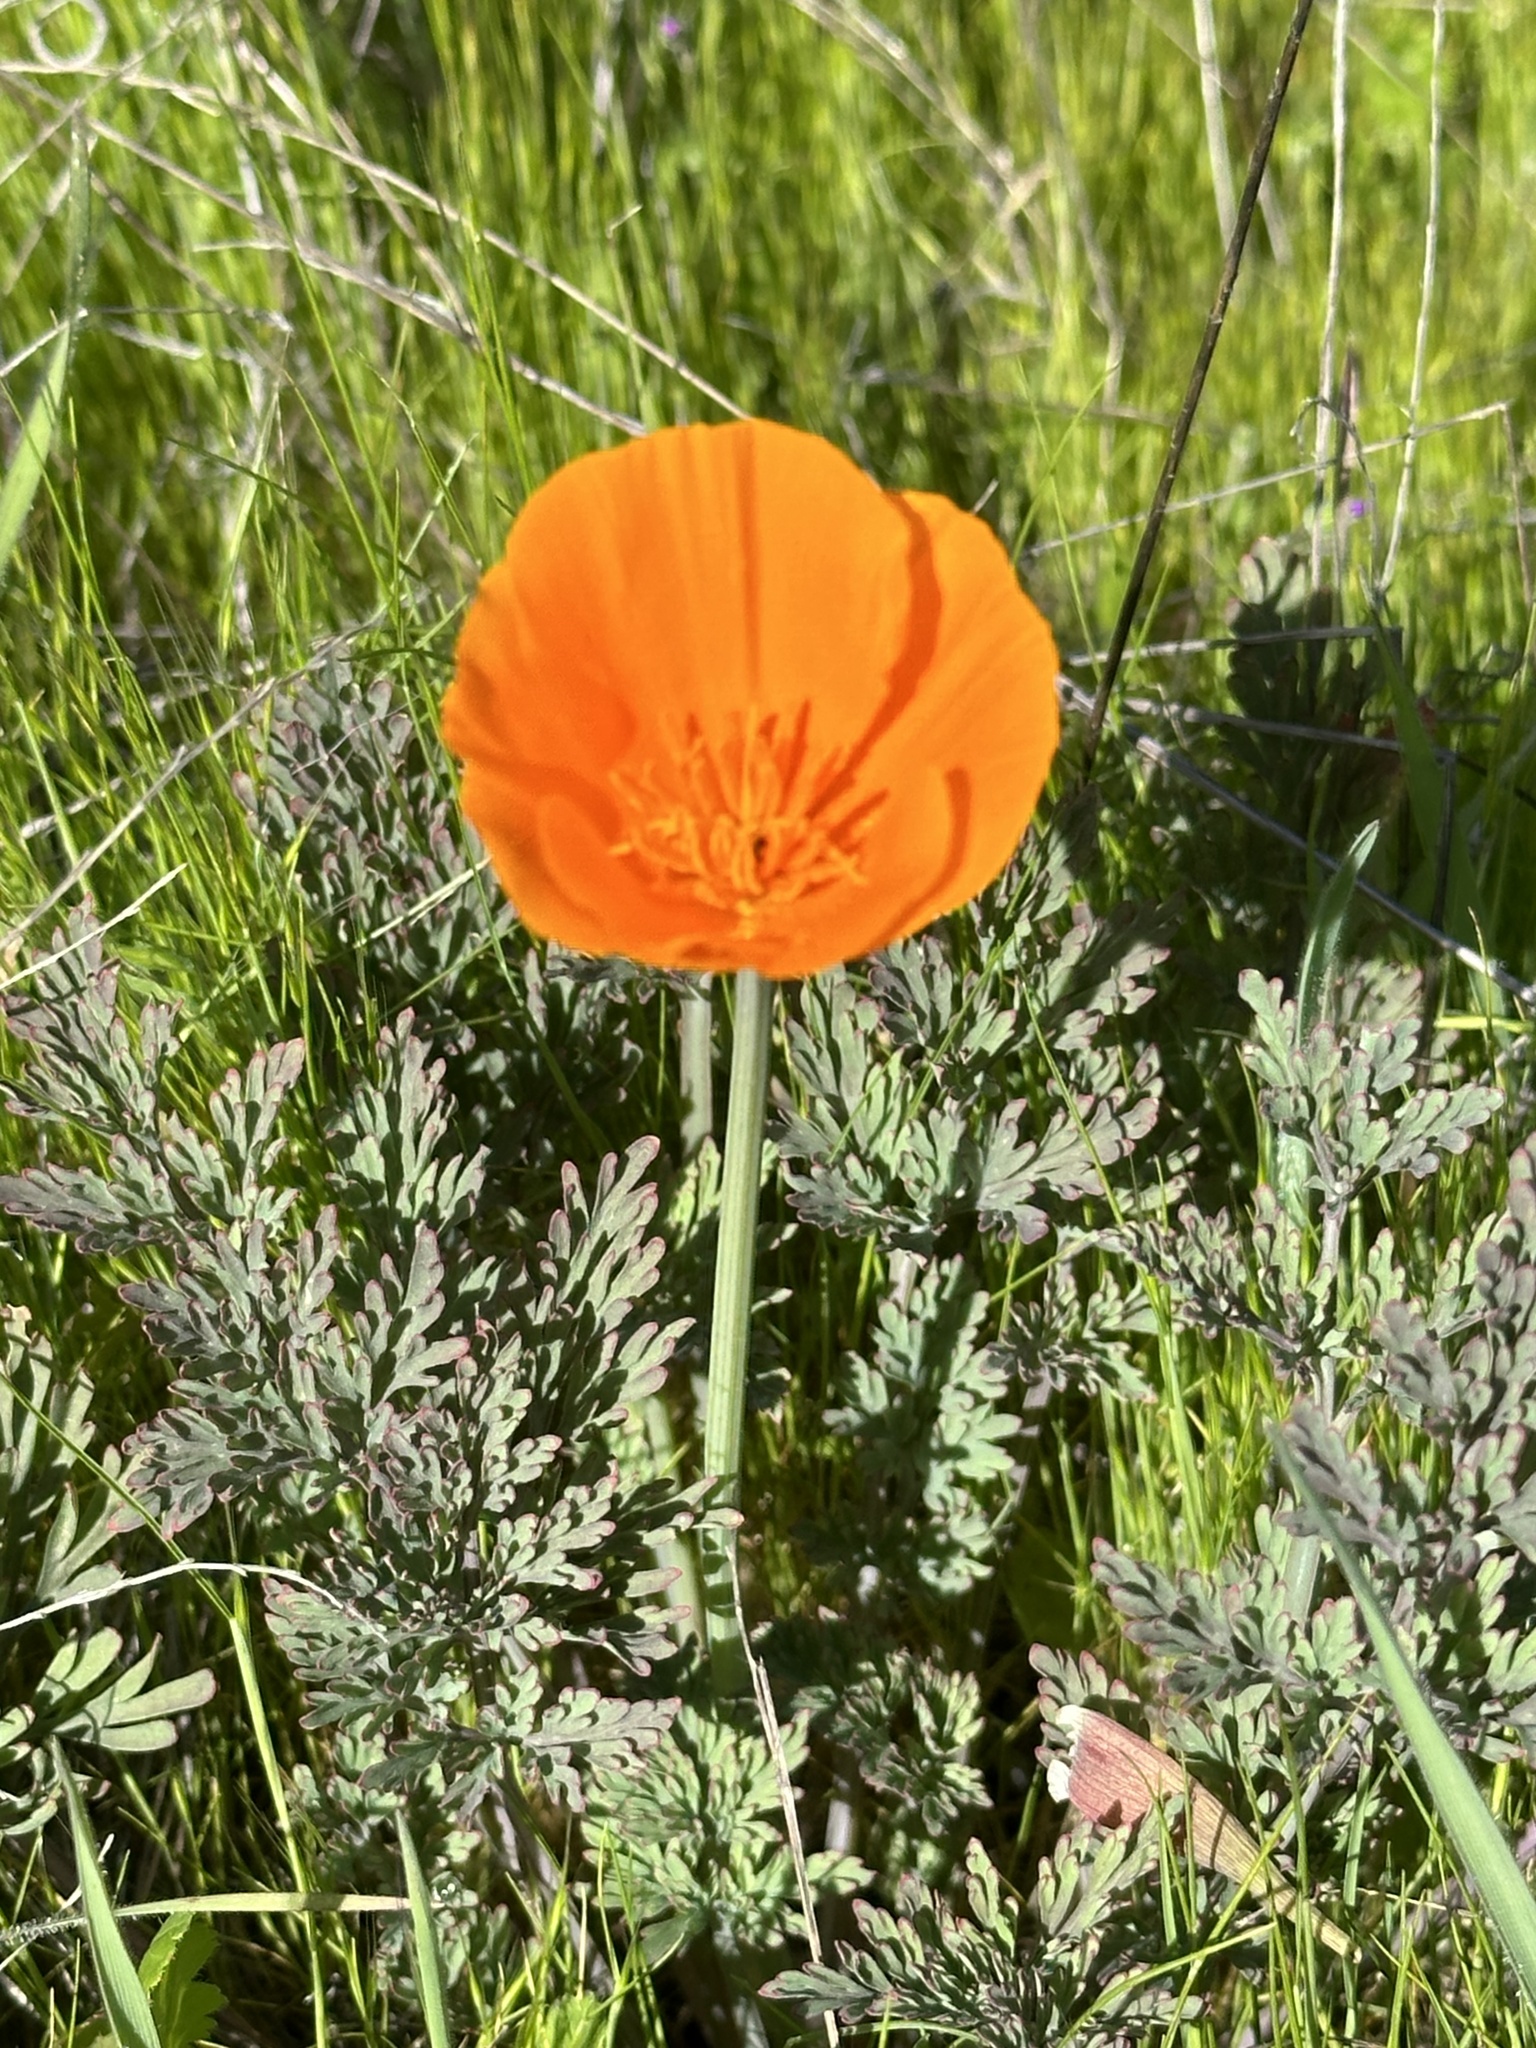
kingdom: Plantae
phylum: Tracheophyta
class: Magnoliopsida
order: Ranunculales
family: Papaveraceae
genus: Eschscholzia
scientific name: Eschscholzia californica
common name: California poppy
